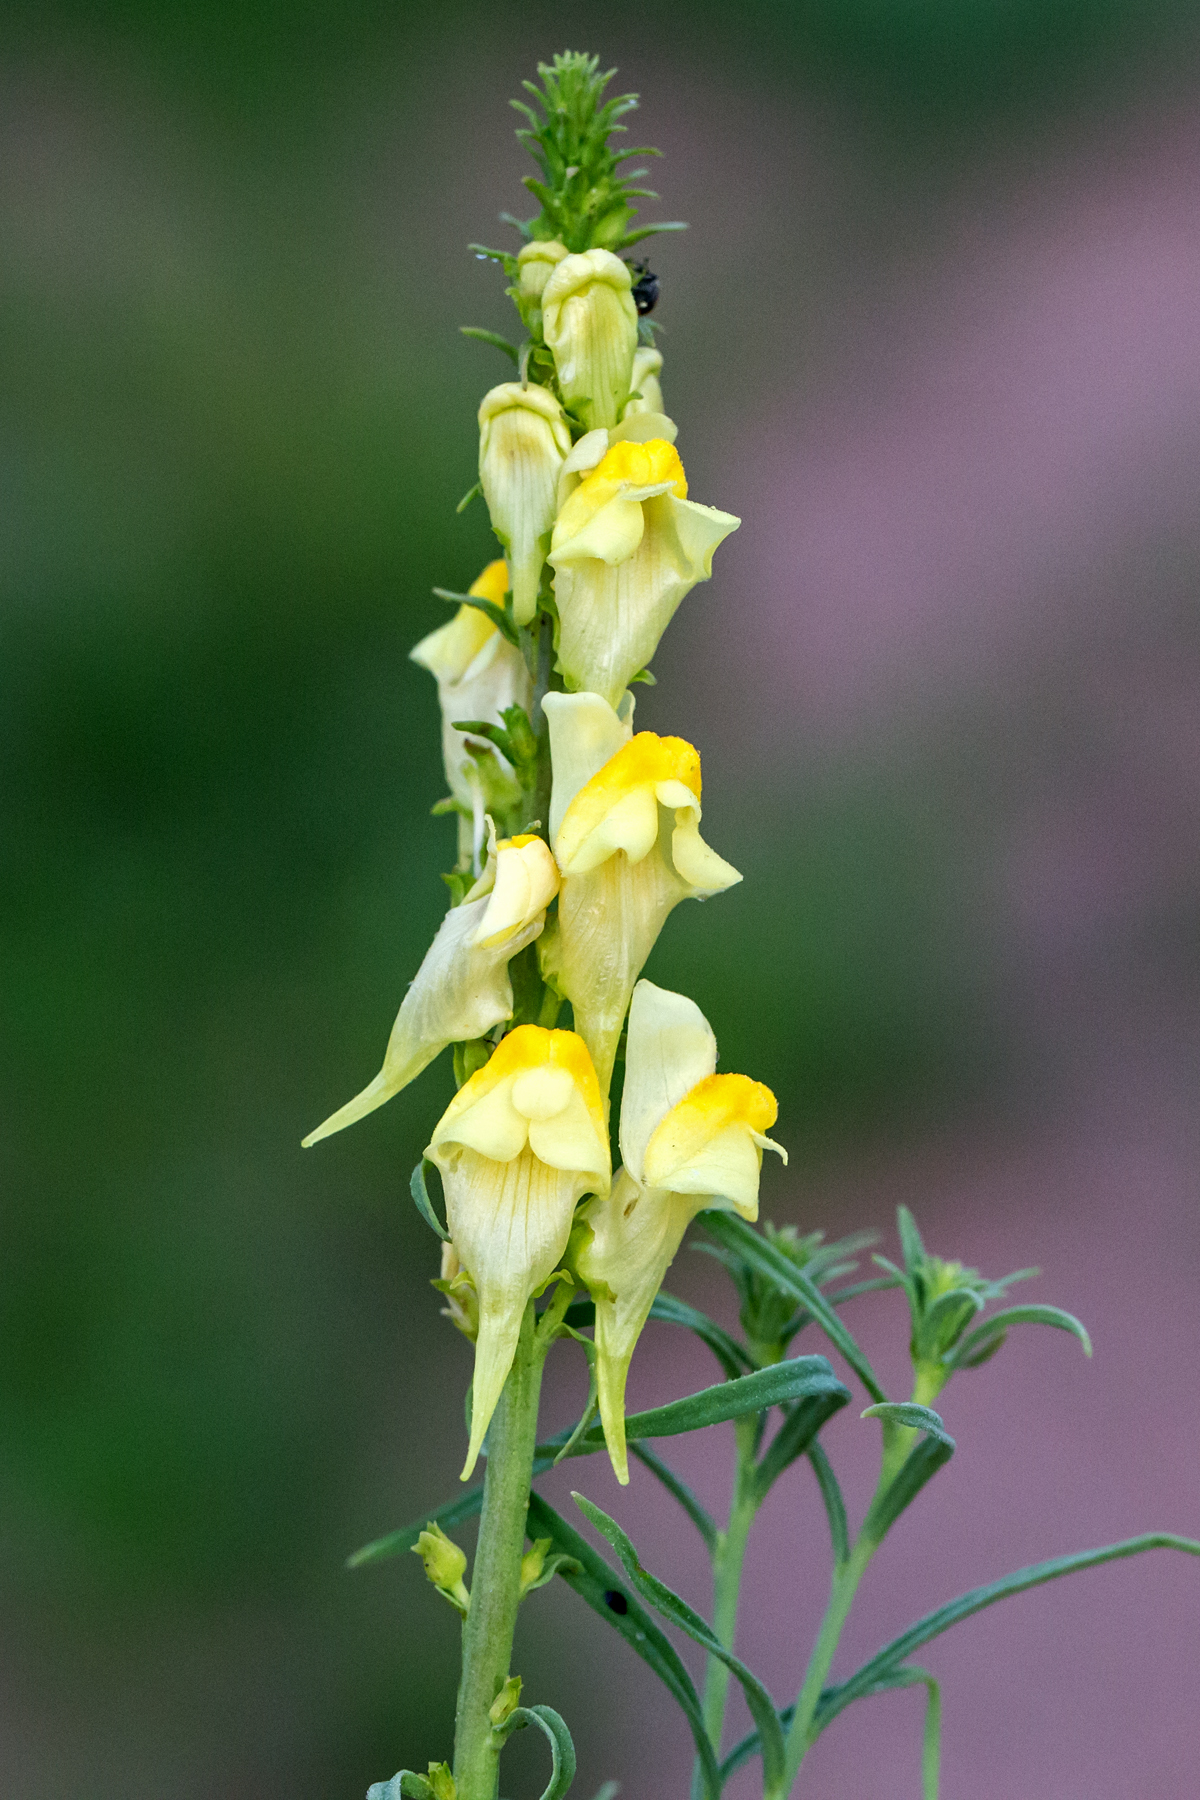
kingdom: Plantae
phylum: Tracheophyta
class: Magnoliopsida
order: Lamiales
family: Plantaginaceae
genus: Linaria
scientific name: Linaria vulgaris
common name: Butter and eggs
